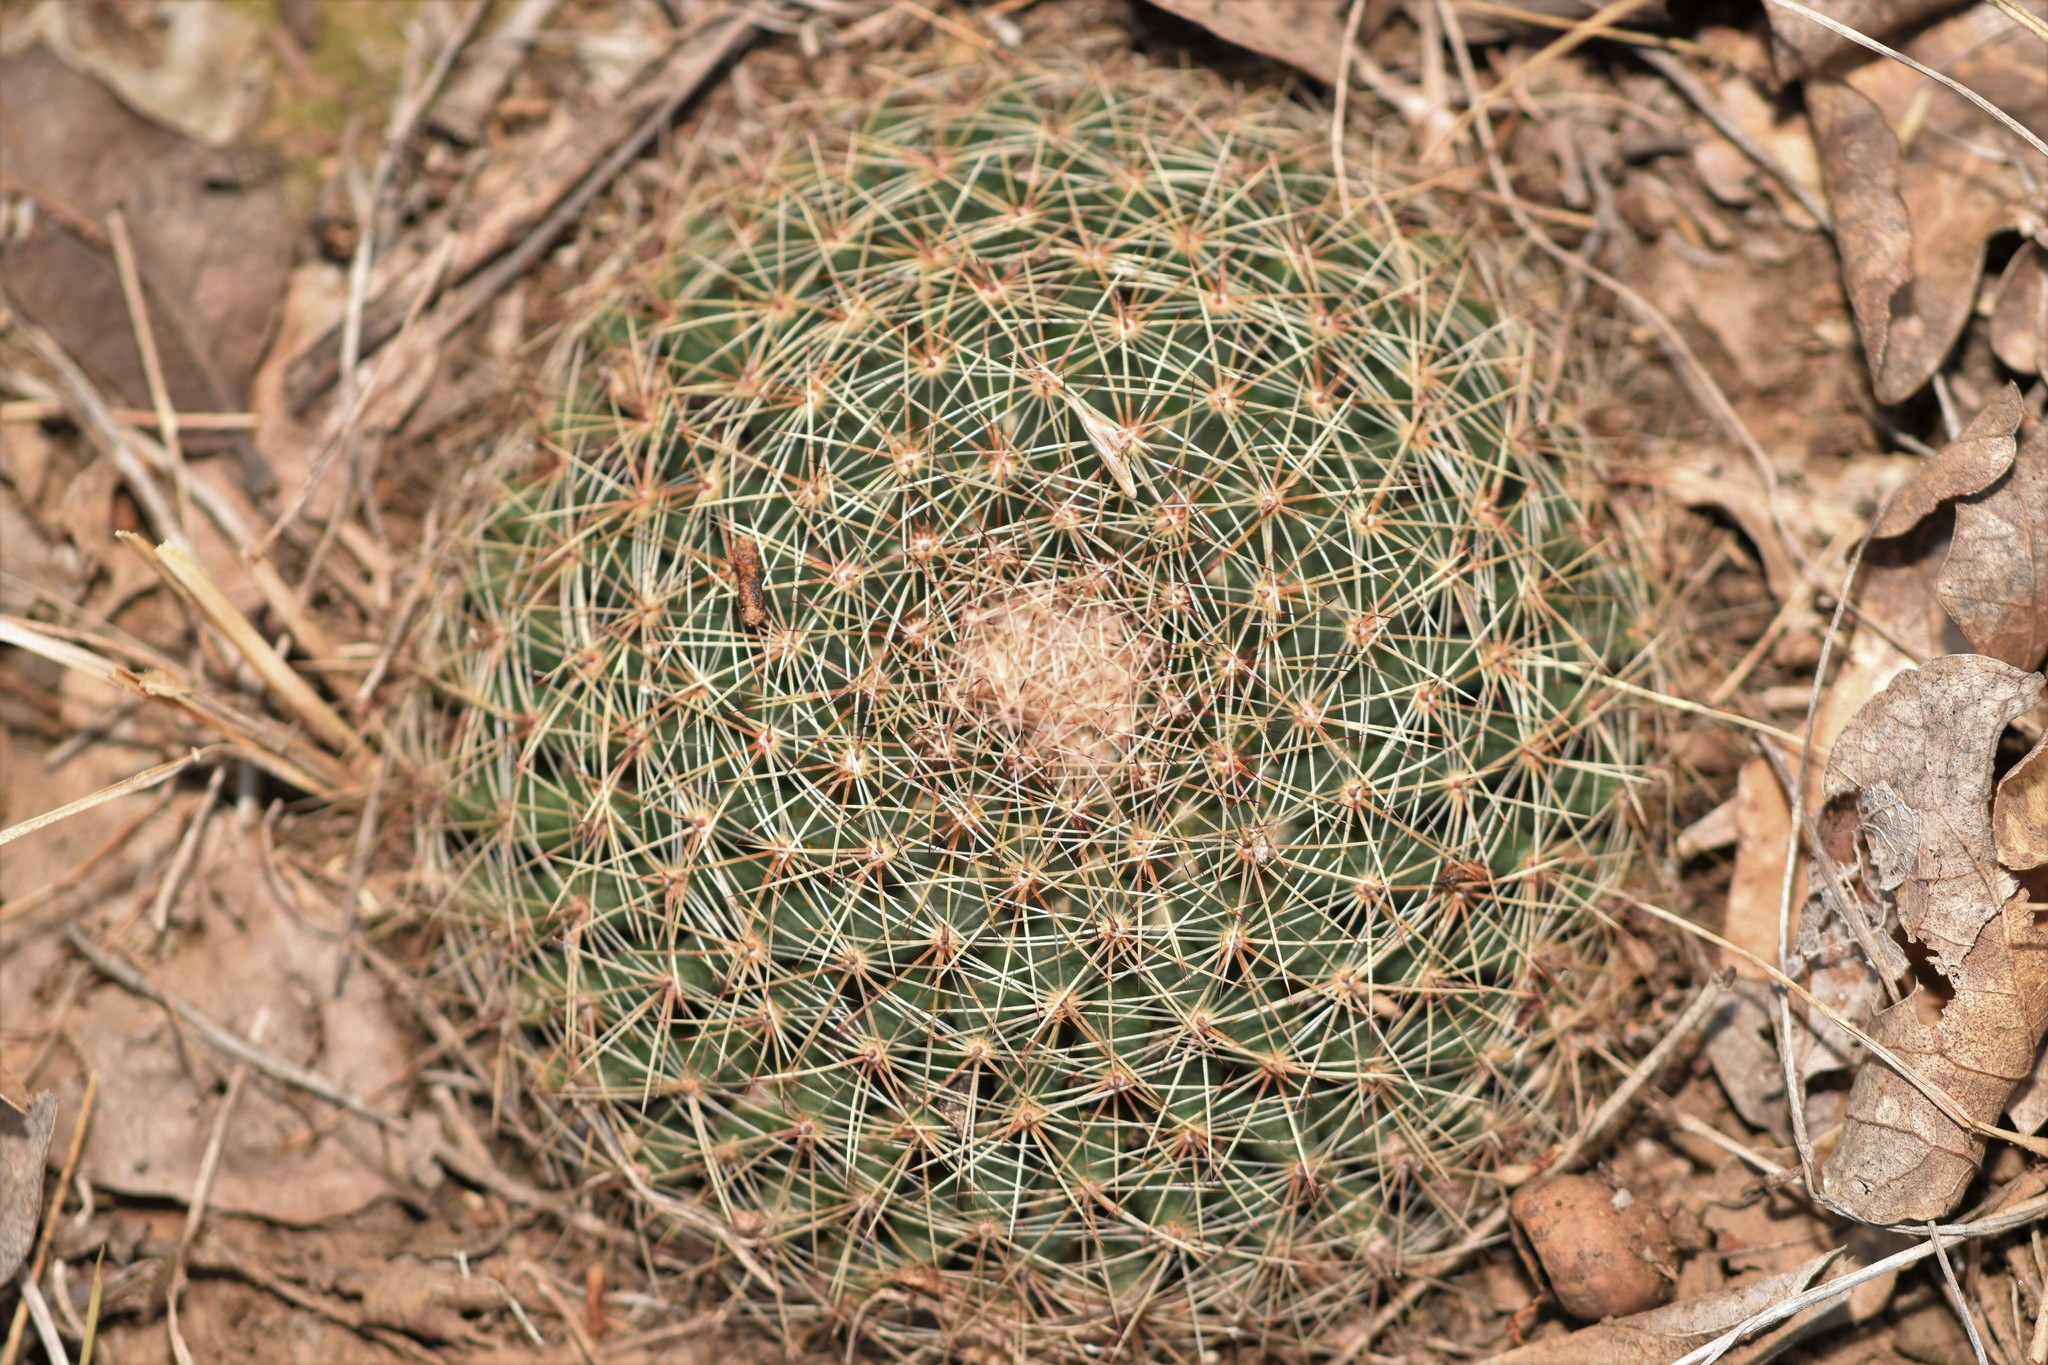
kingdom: Plantae
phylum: Tracheophyta
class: Magnoliopsida
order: Caryophyllales
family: Cactaceae
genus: Mammillaria
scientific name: Mammillaria heyderi
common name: Little nipple cactus
